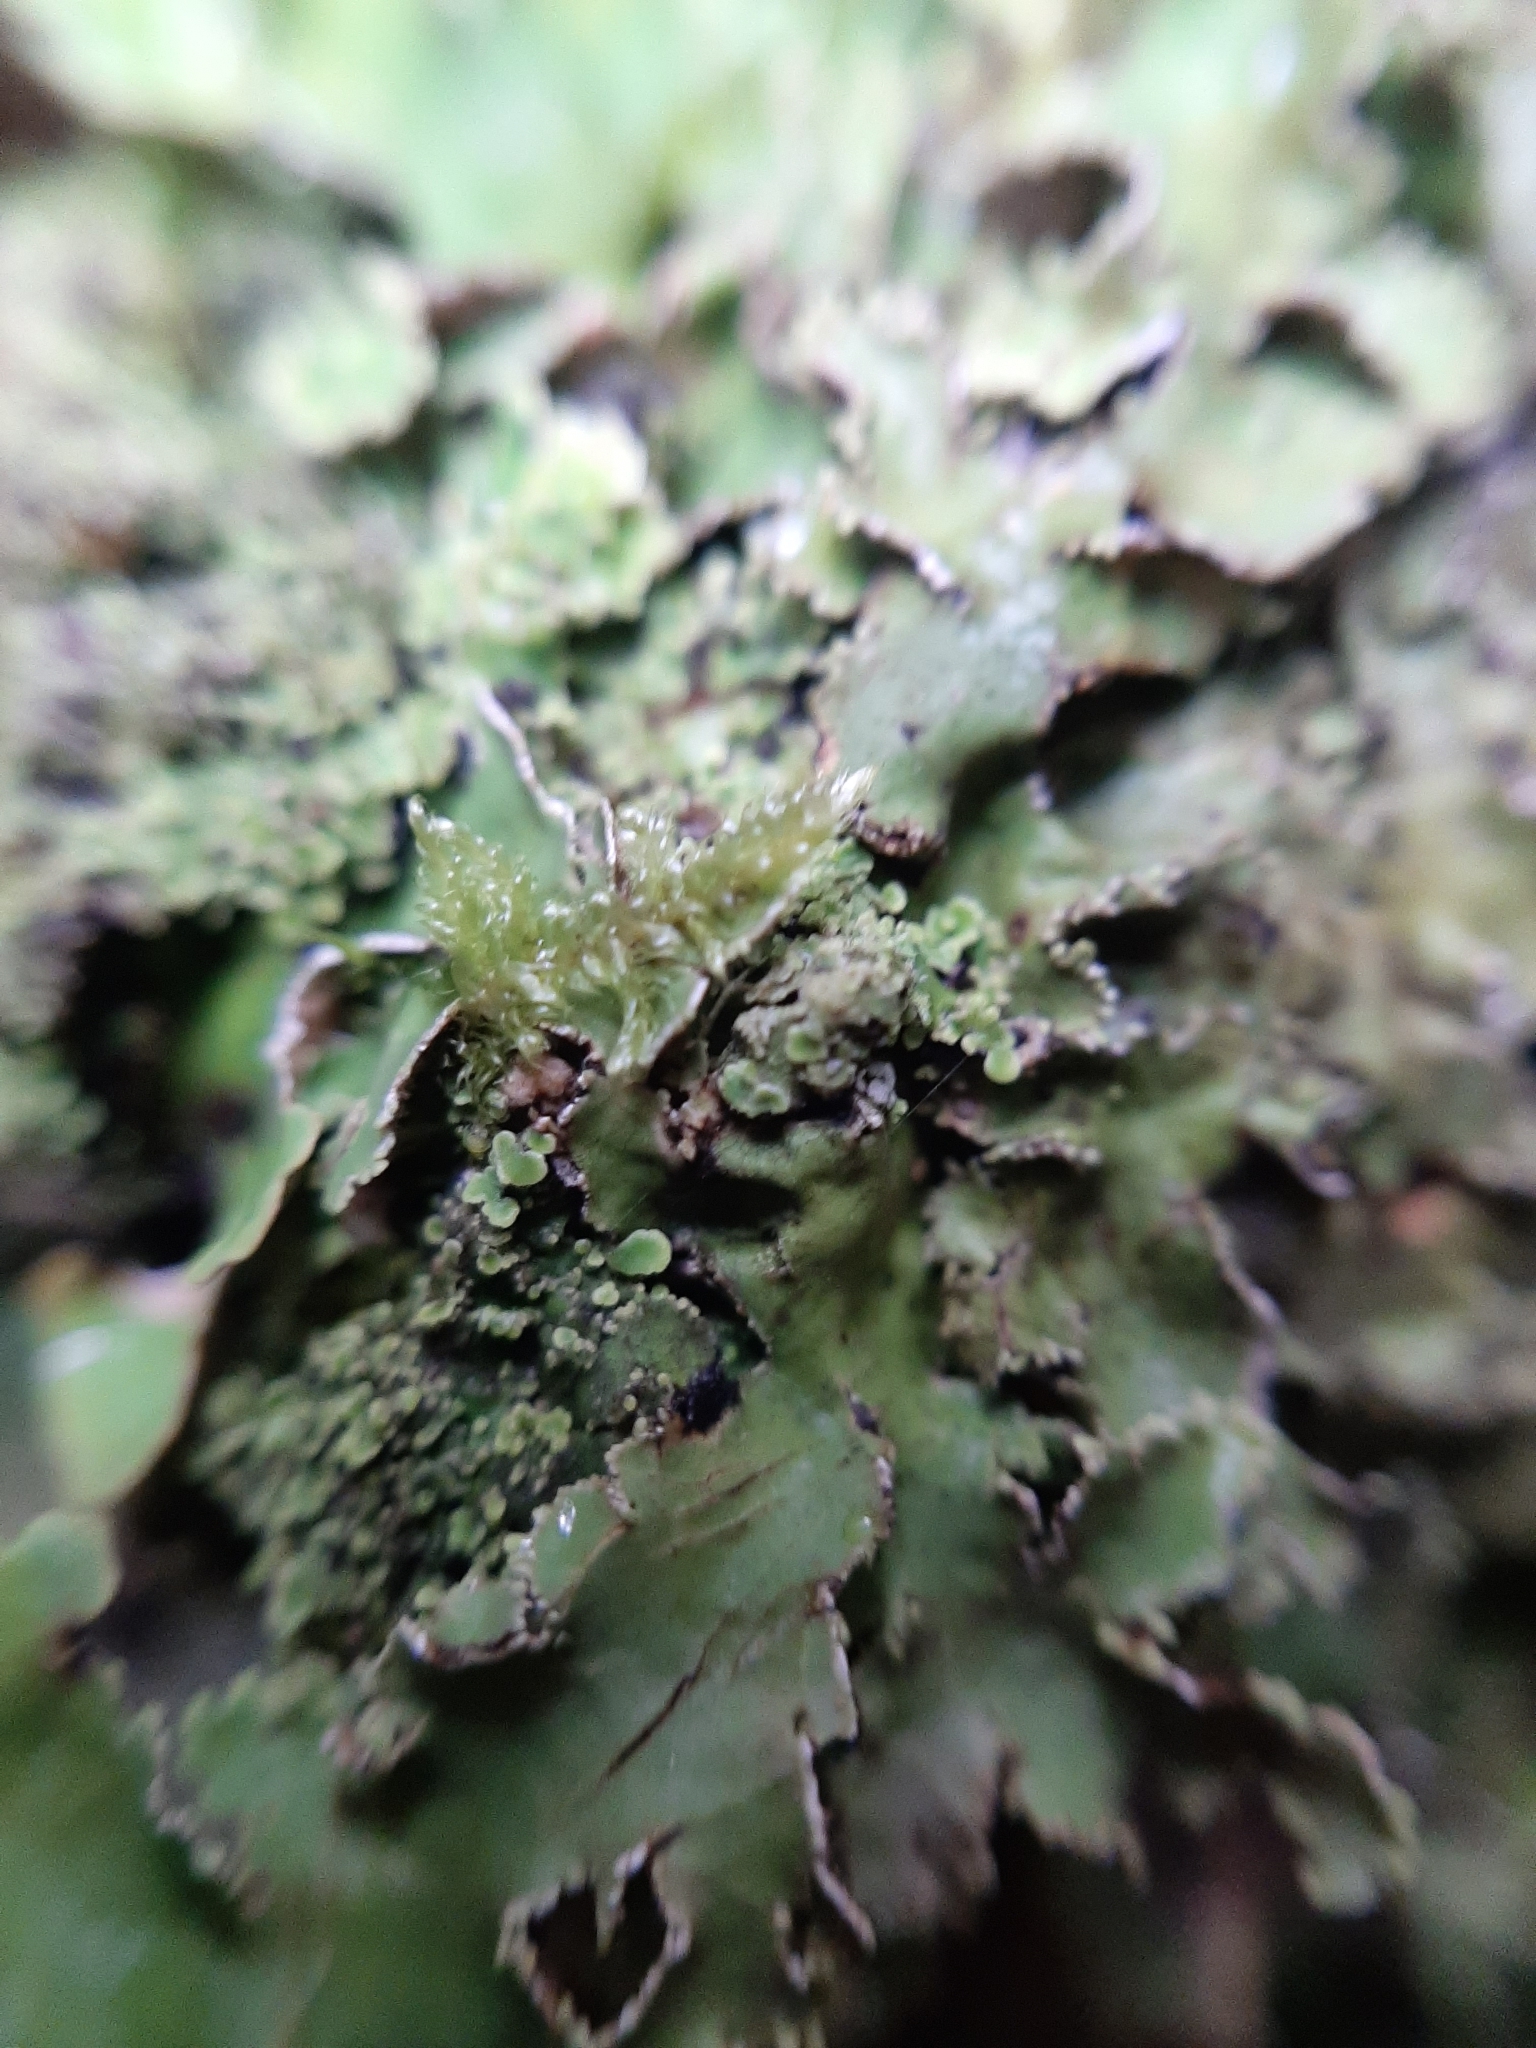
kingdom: Fungi
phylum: Ascomycota
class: Lecanoromycetes
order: Peltigerales
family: Lobariaceae
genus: Pseudocyphellaria
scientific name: Pseudocyphellaria glabra
